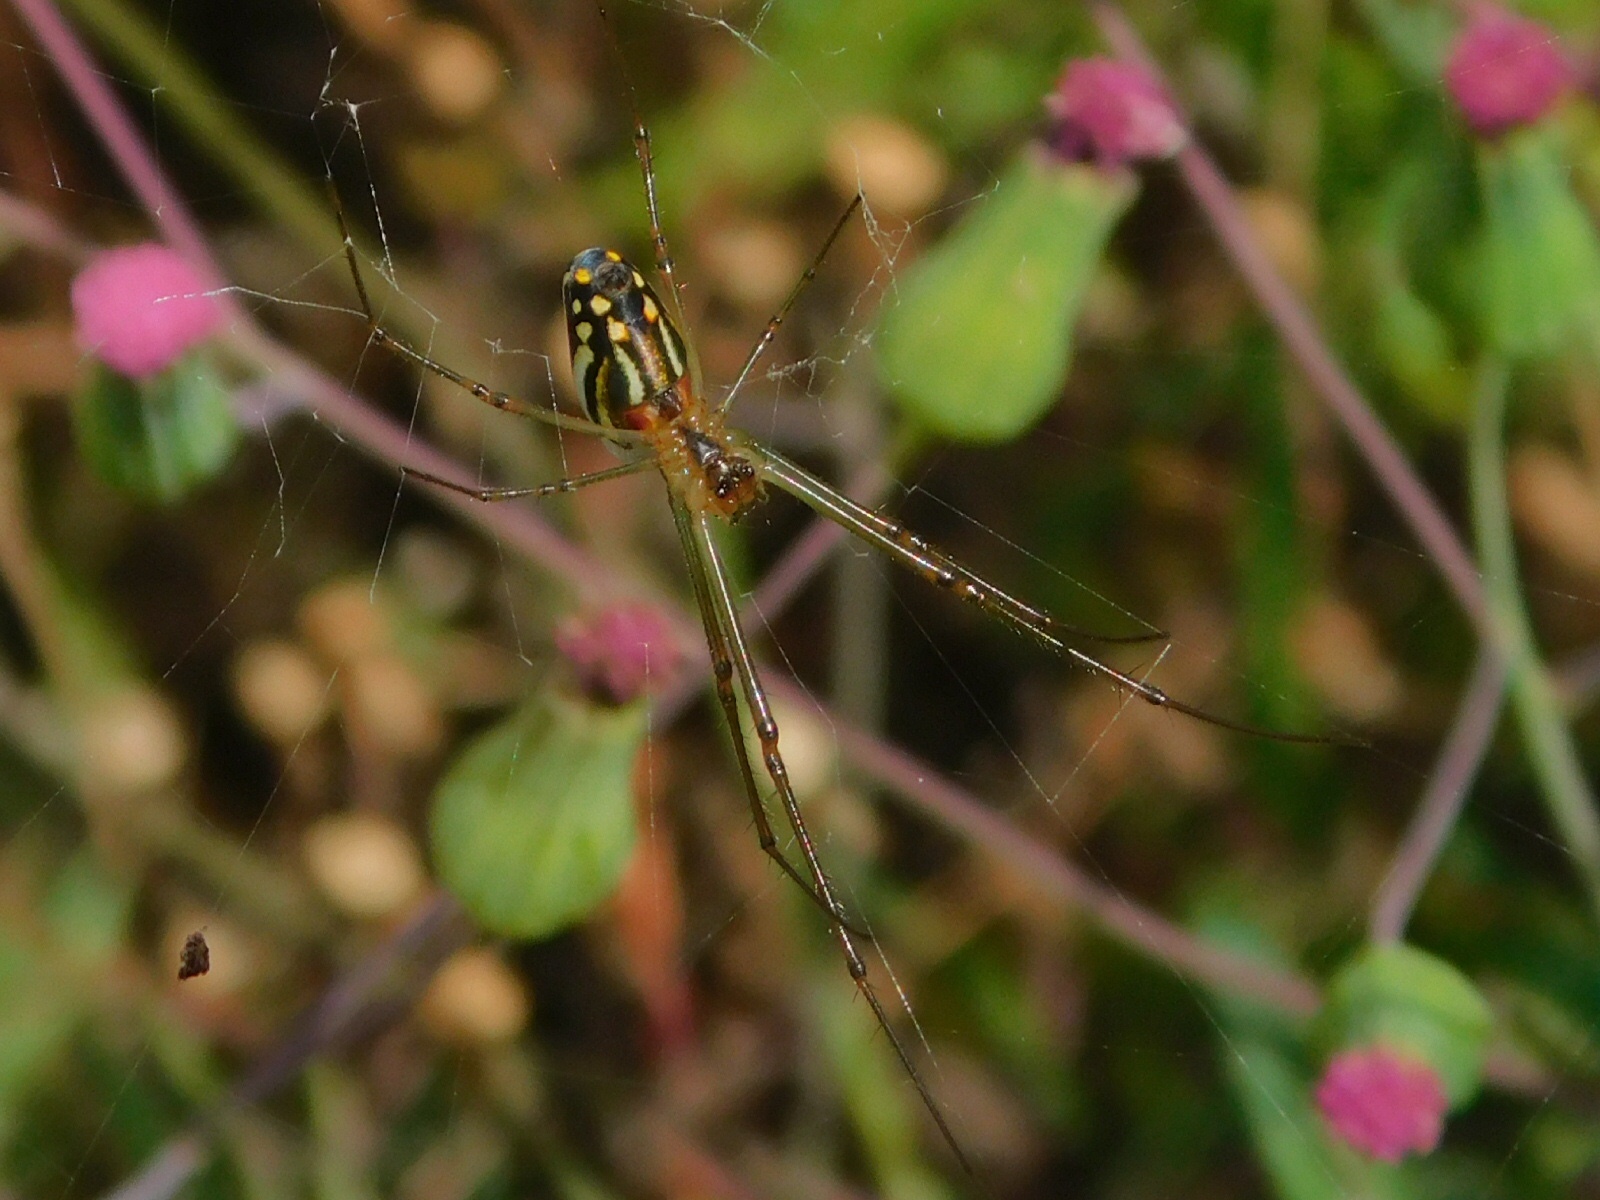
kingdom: Animalia
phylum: Arthropoda
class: Arachnida
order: Araneae
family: Tetragnathidae
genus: Leucauge
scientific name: Leucauge argyra
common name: Longjawed orb weavers
